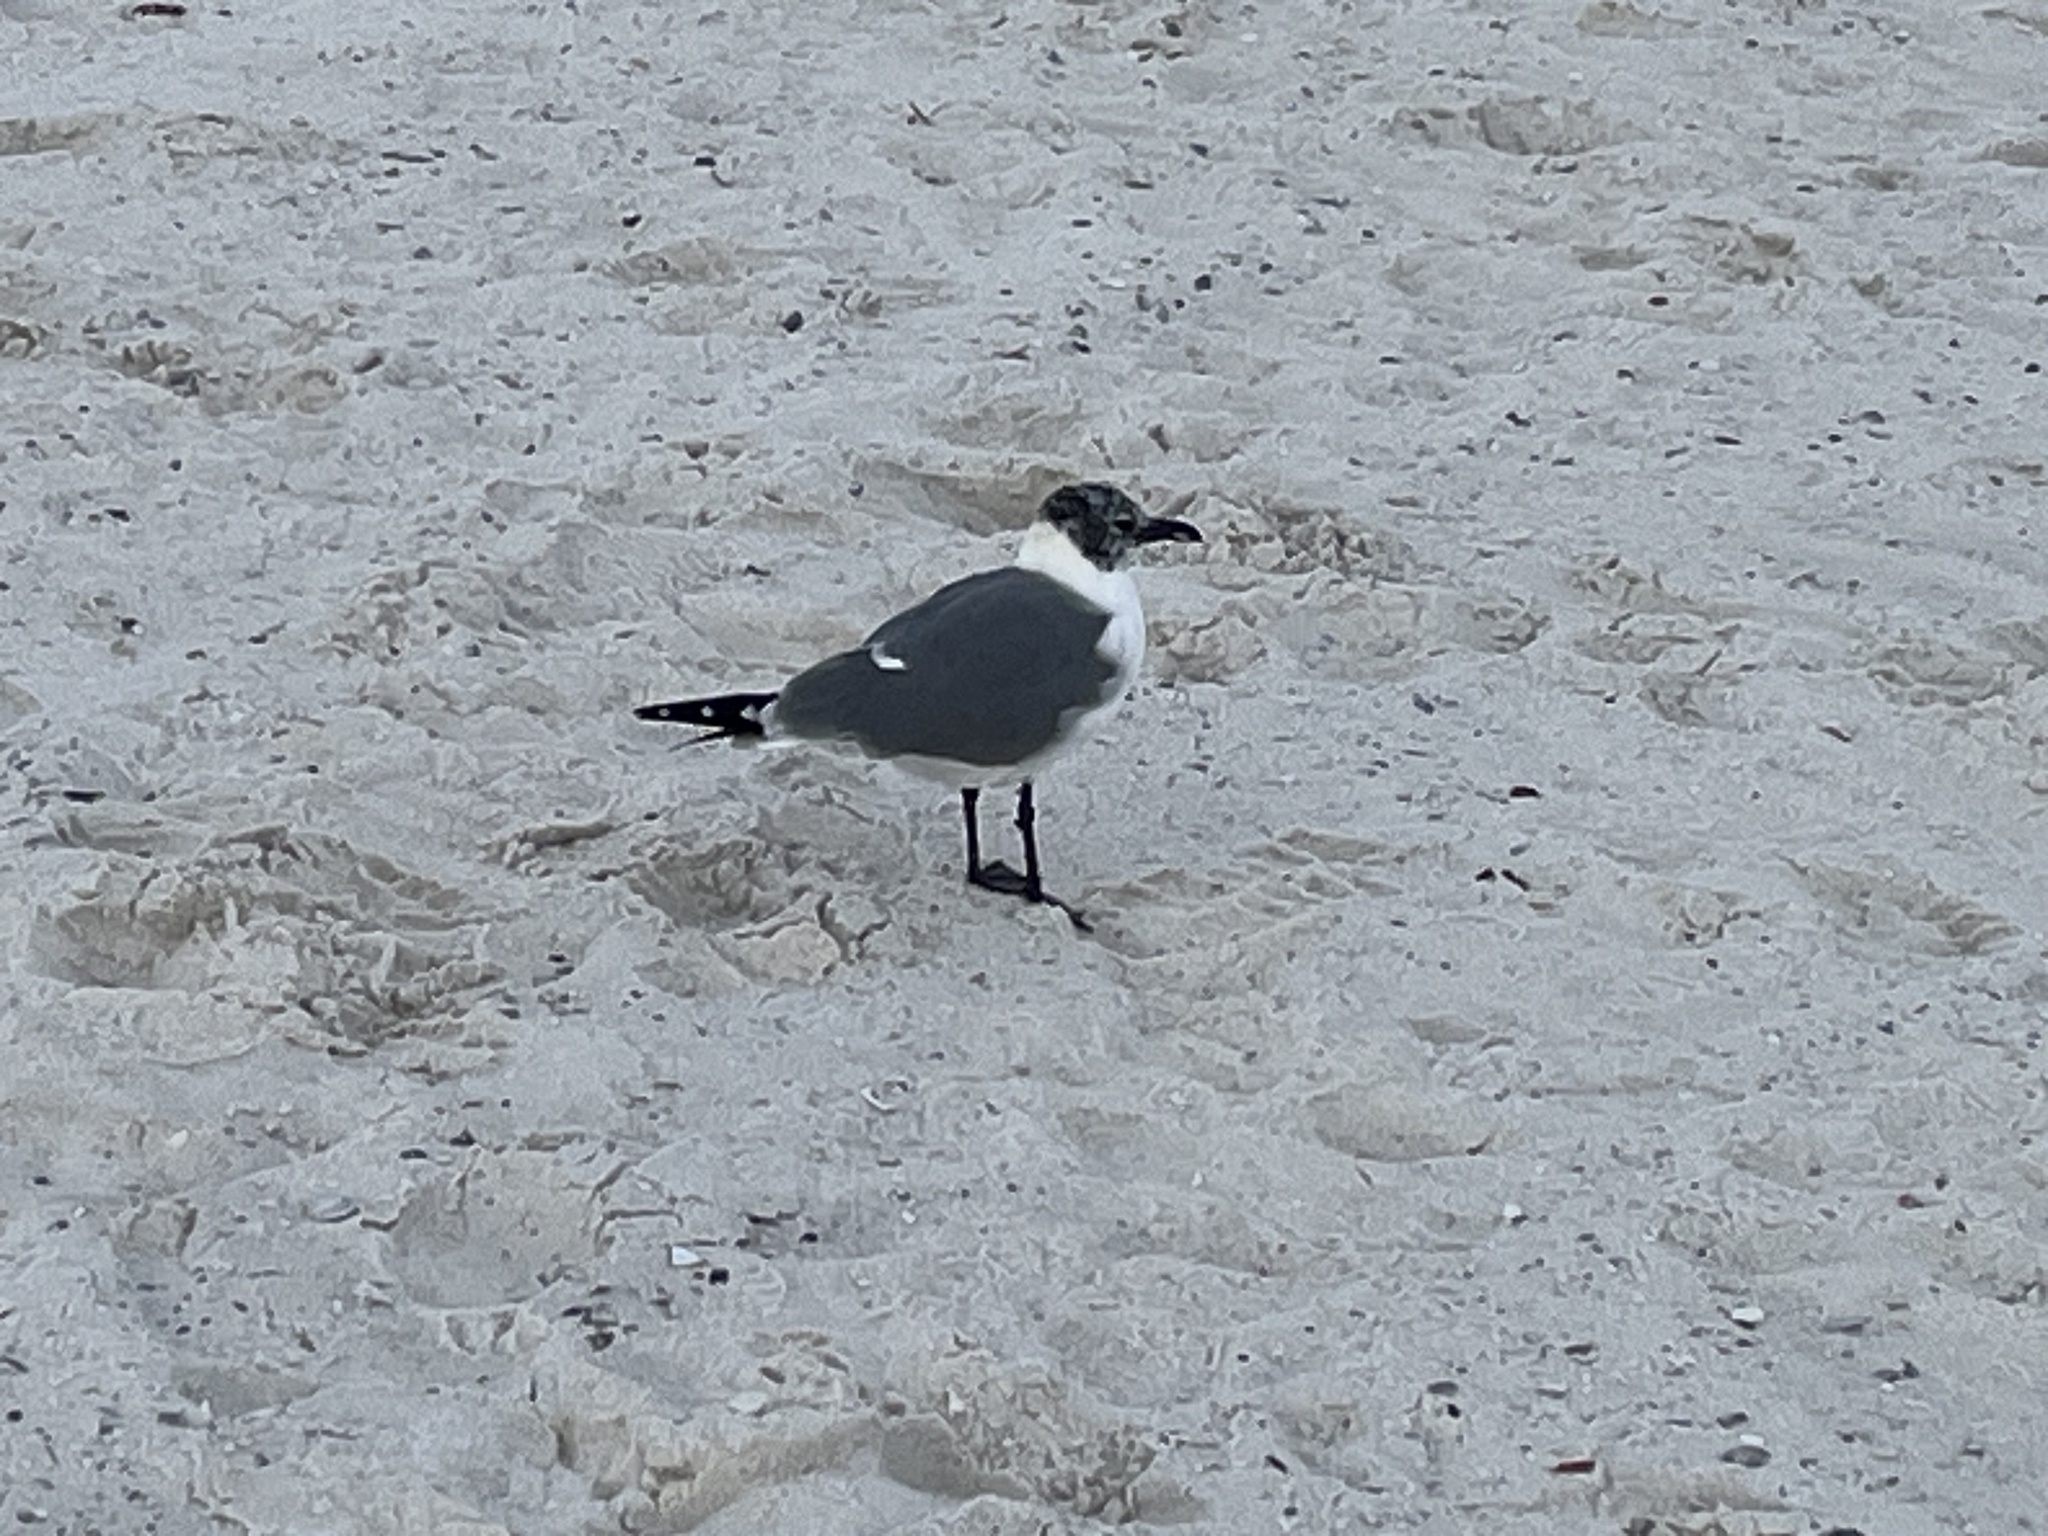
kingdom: Animalia
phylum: Chordata
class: Aves
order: Charadriiformes
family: Laridae
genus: Leucophaeus
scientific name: Leucophaeus atricilla
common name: Laughing gull
